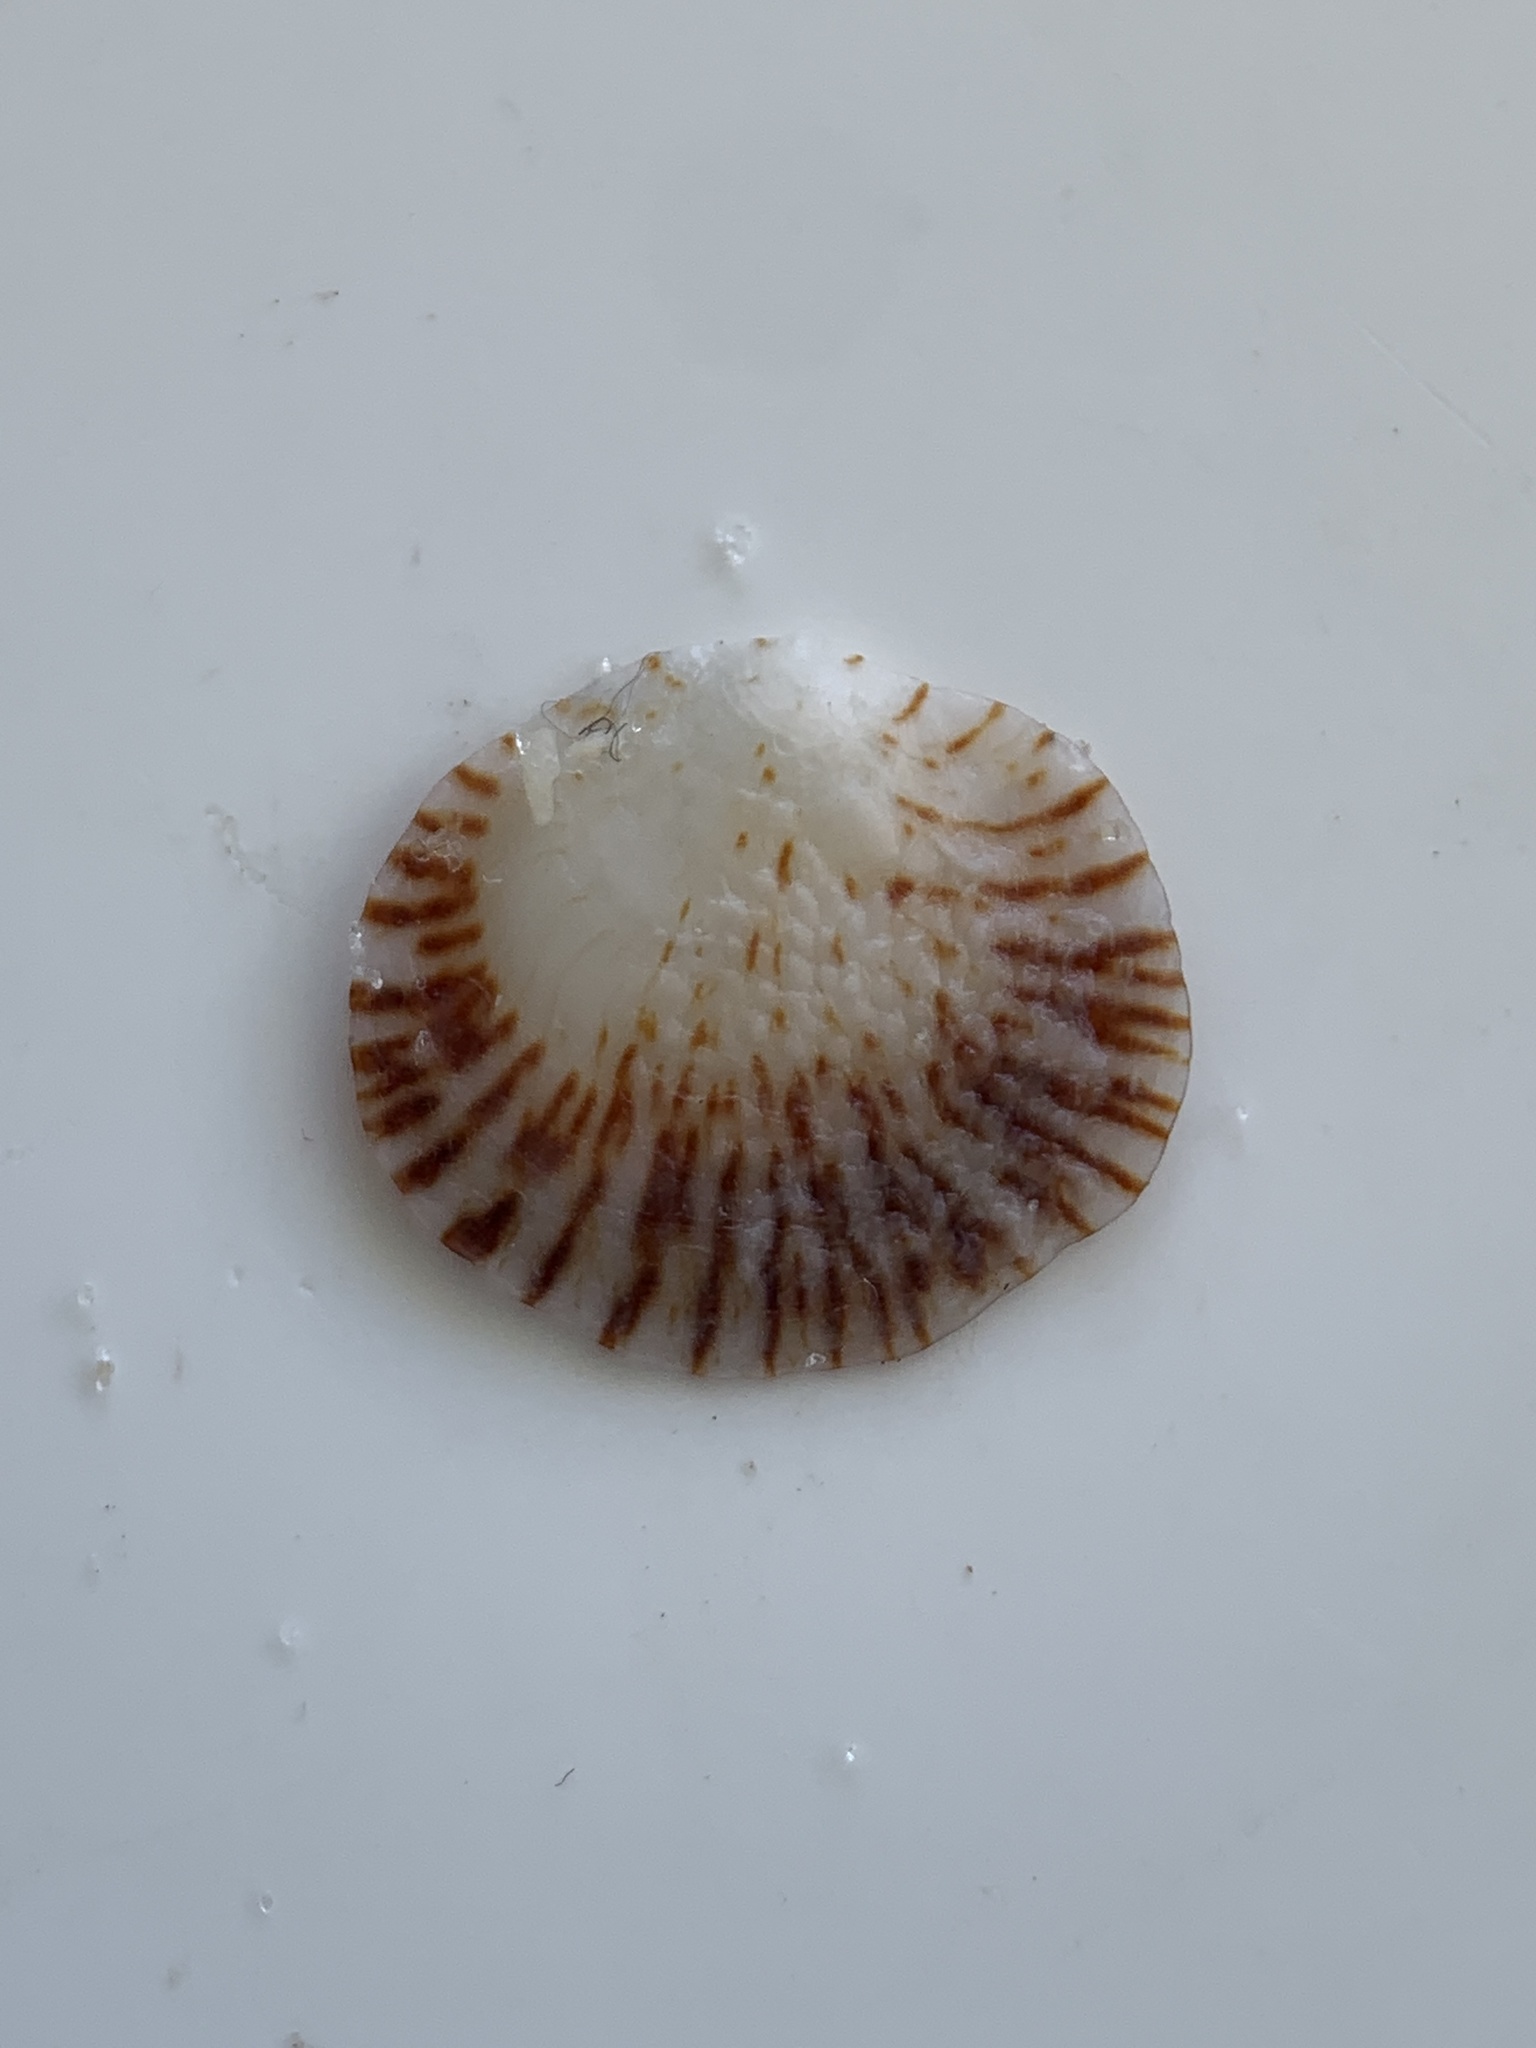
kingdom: Animalia
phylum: Mollusca
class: Bivalvia
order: Pectinida
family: Plicatulidae
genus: Plicatula
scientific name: Plicatula gibbosa
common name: Atlantic kitten's paw
